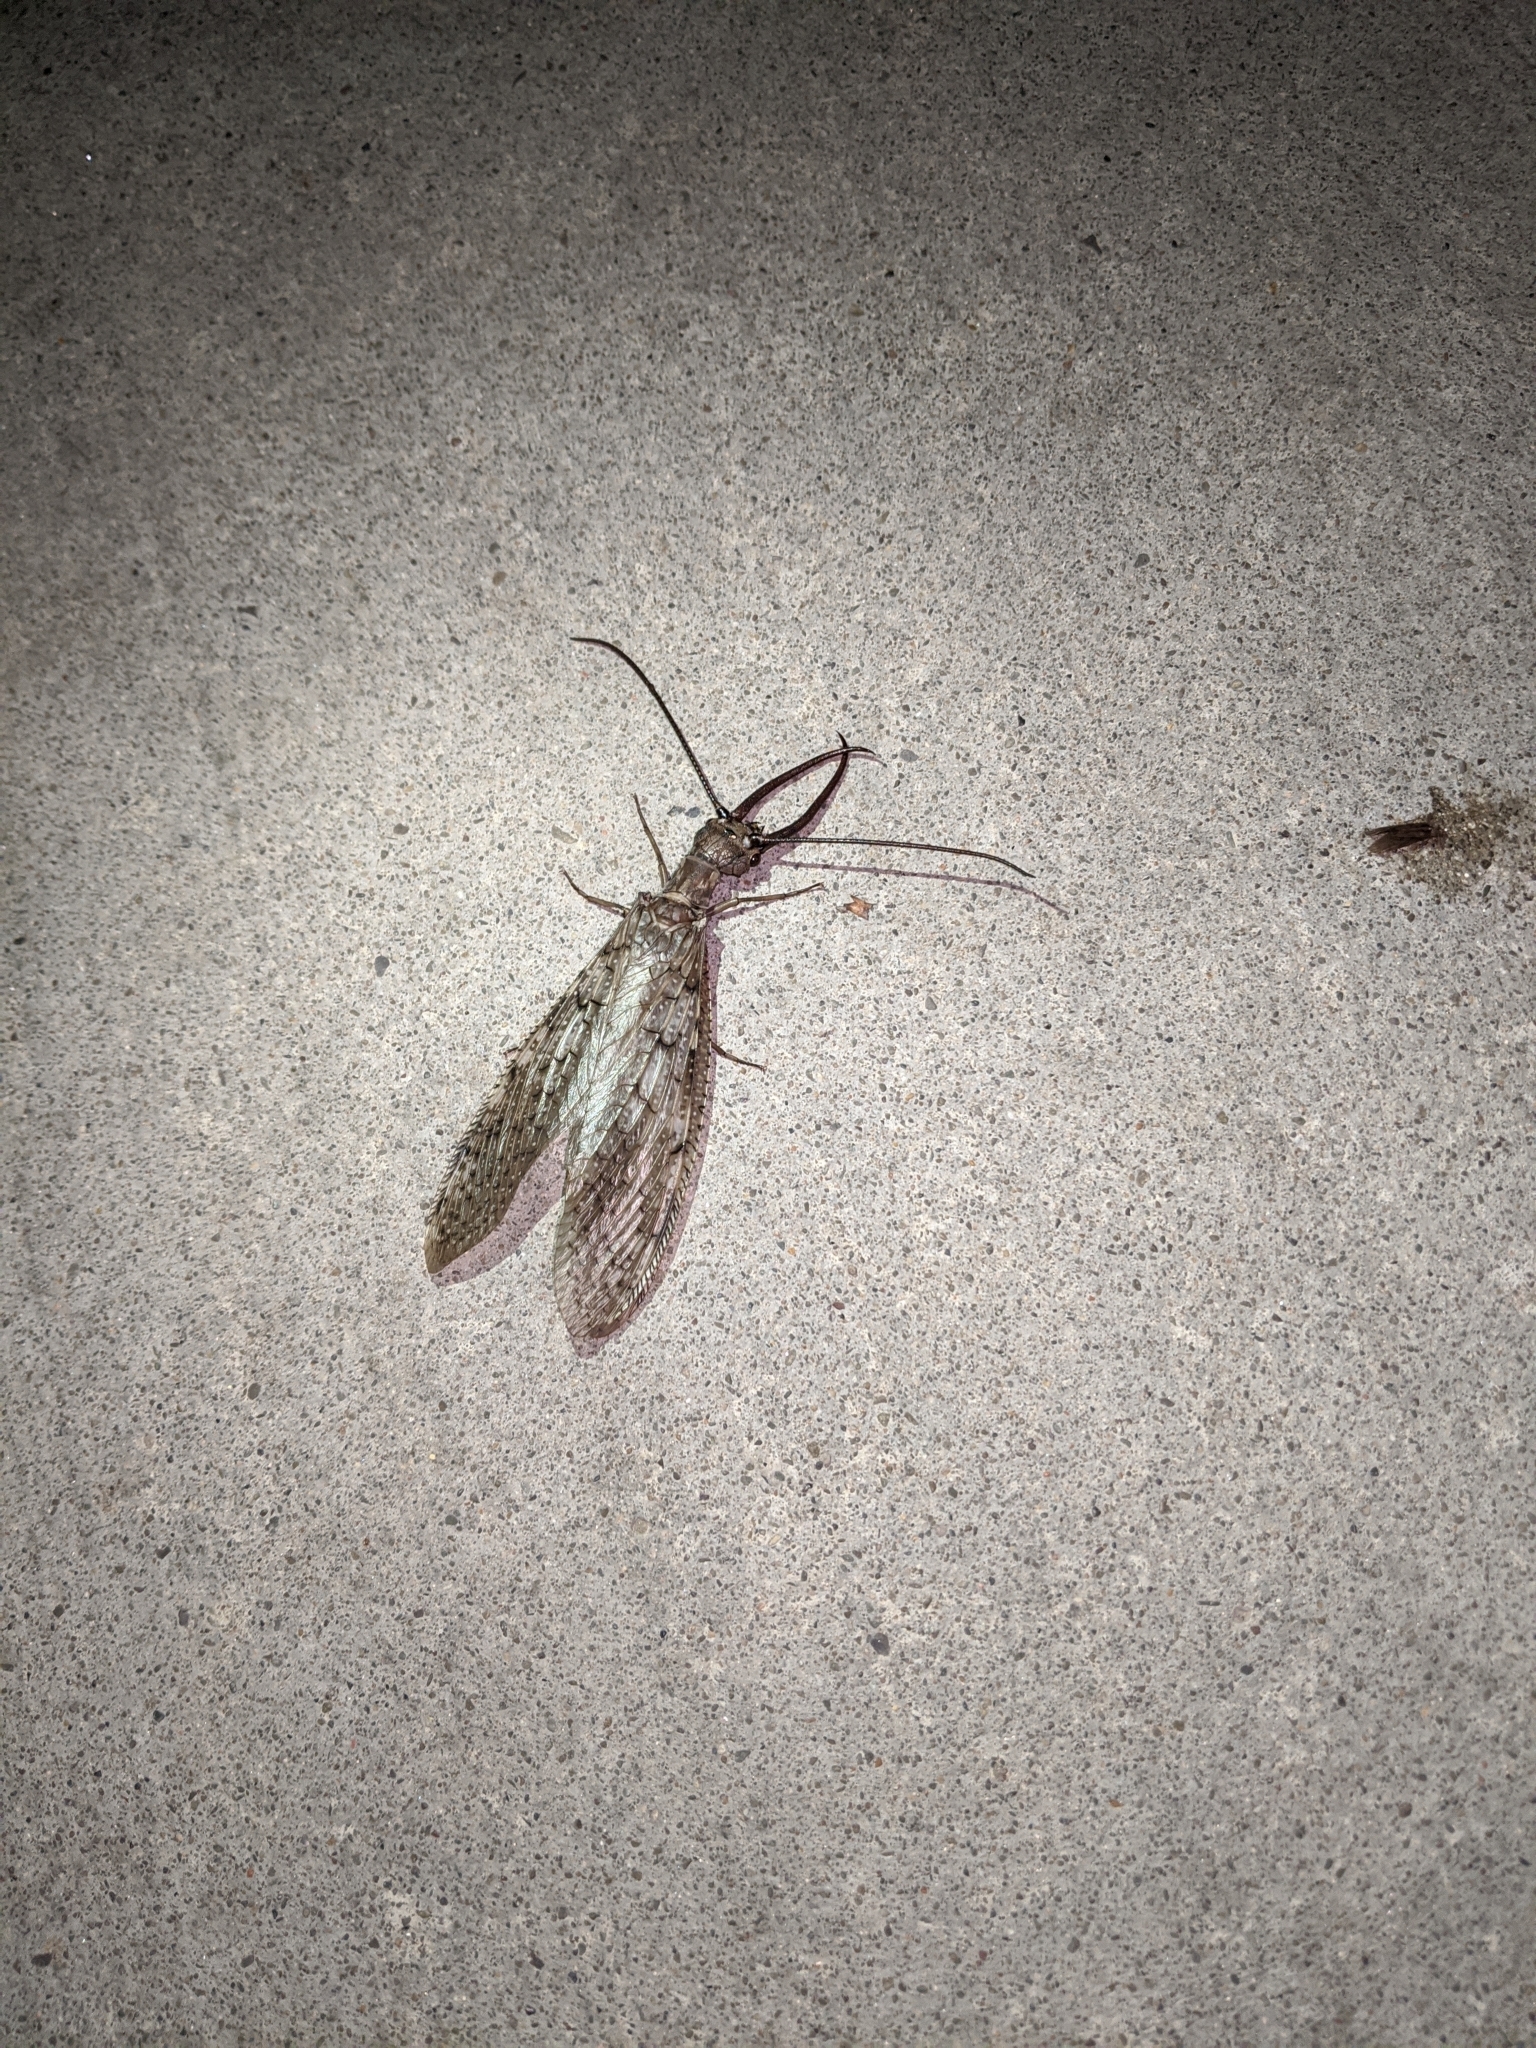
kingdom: Animalia
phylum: Arthropoda
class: Insecta
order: Megaloptera
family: Corydalidae
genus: Corydalus
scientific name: Corydalus cornutus
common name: Dobsonfly
